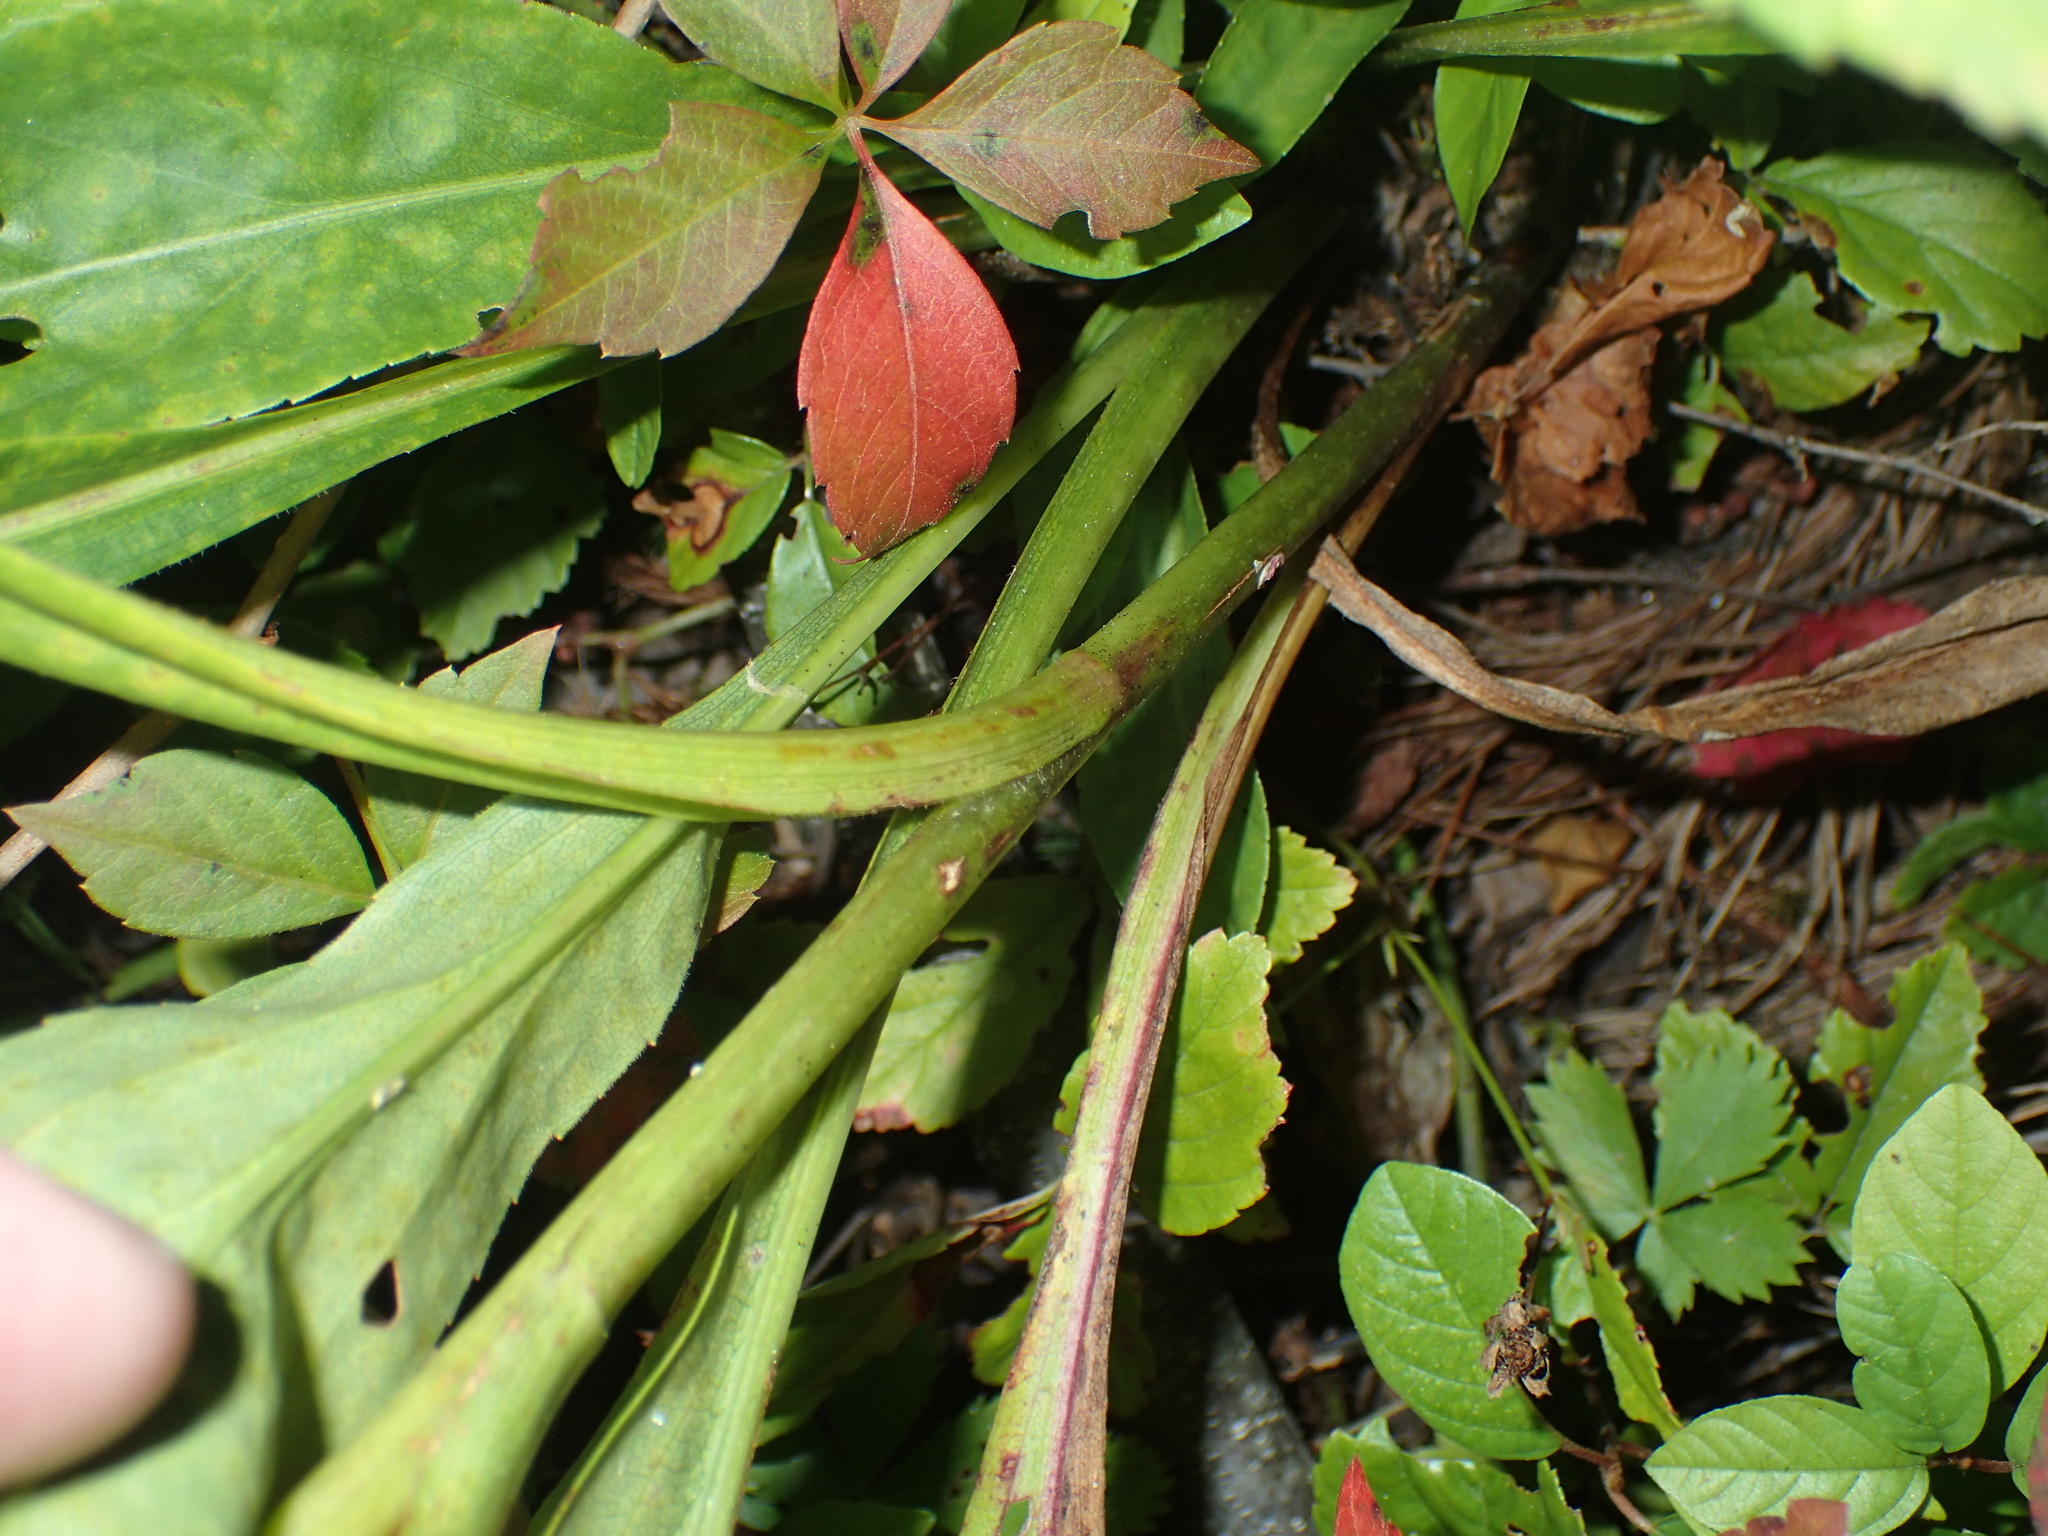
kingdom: Plantae
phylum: Tracheophyta
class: Magnoliopsida
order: Asterales
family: Asteraceae
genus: Solidago
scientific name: Solidago juncea
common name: Early goldenrod
